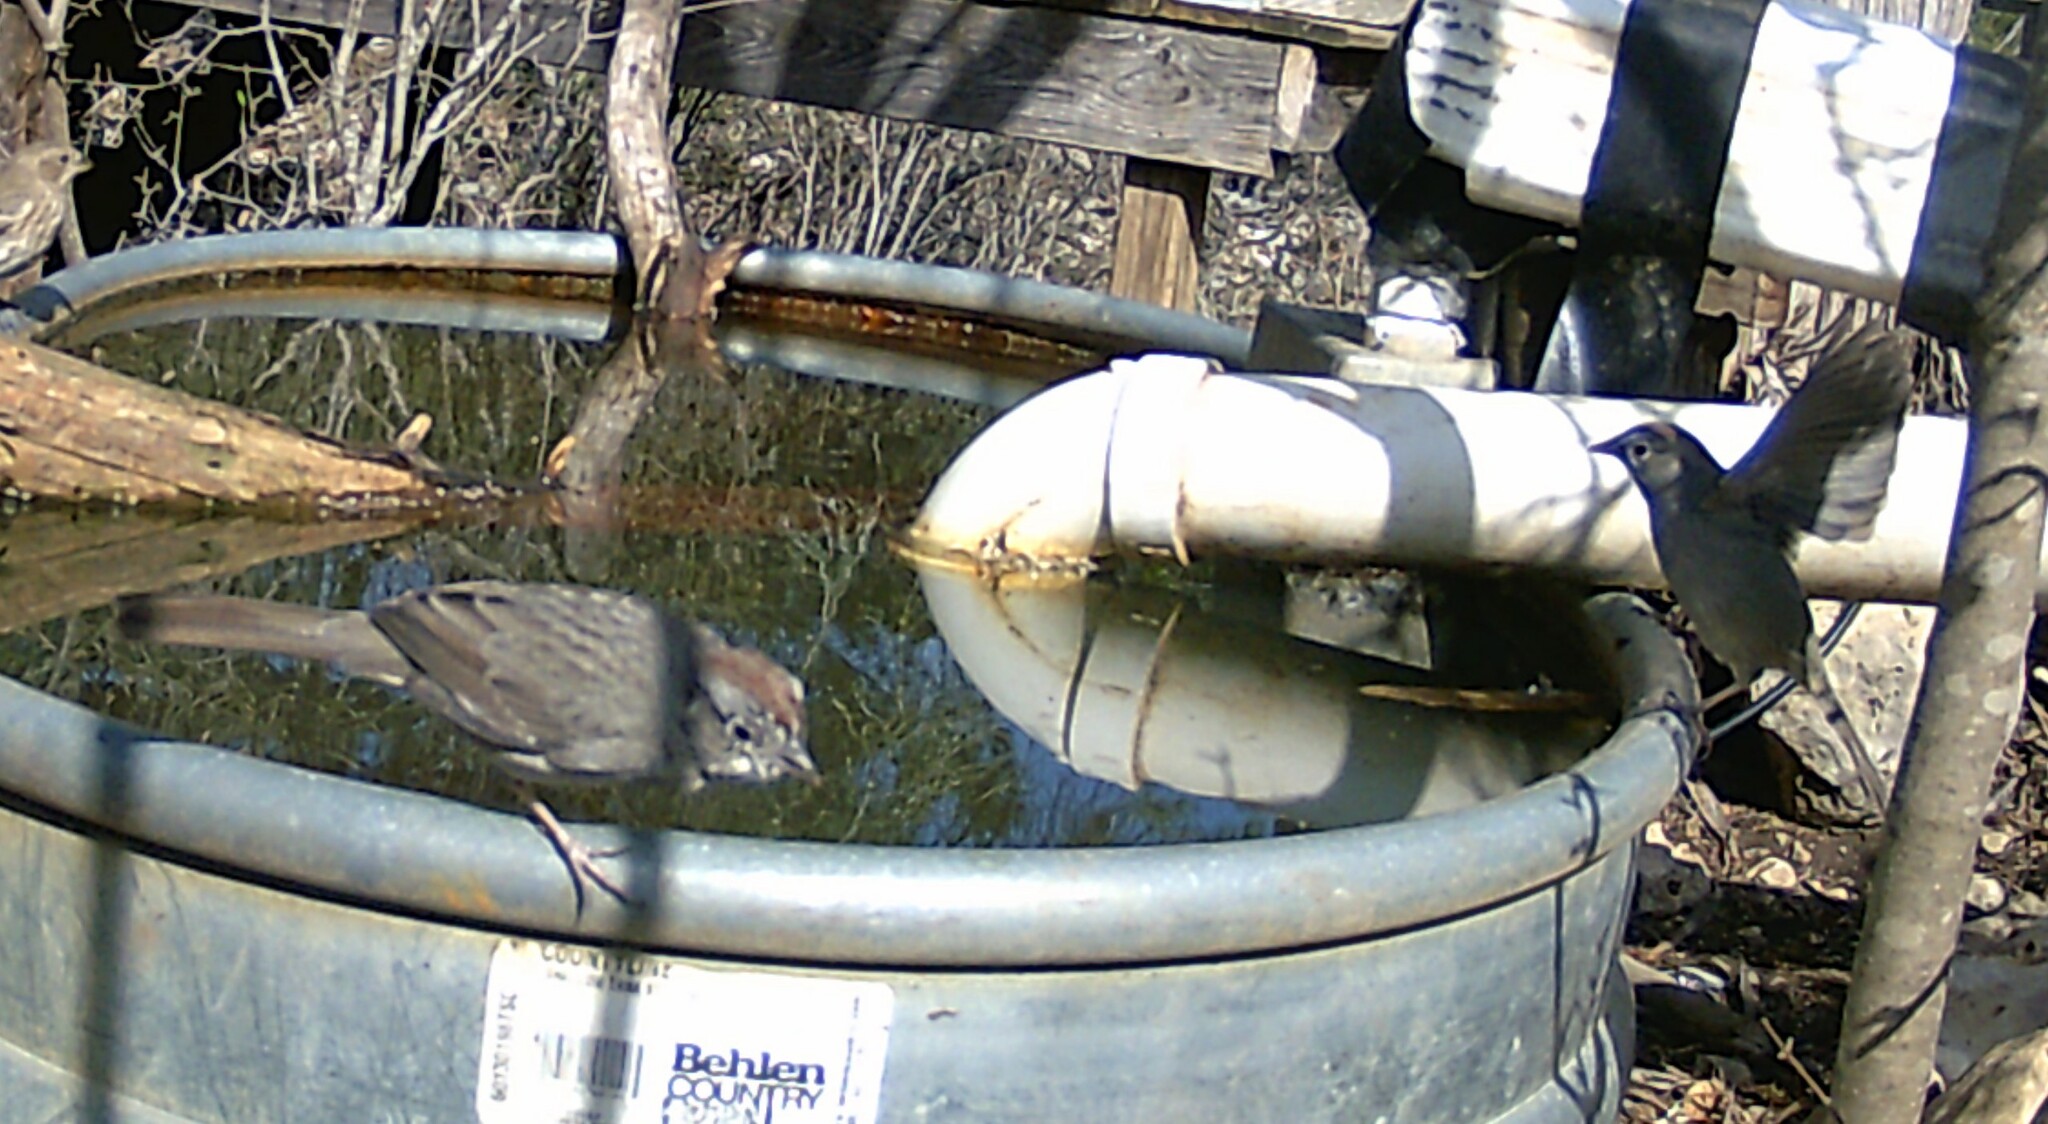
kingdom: Animalia
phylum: Chordata
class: Aves
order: Passeriformes
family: Passerellidae
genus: Aimophila
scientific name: Aimophila ruficeps
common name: Rufous-crowned sparrow
